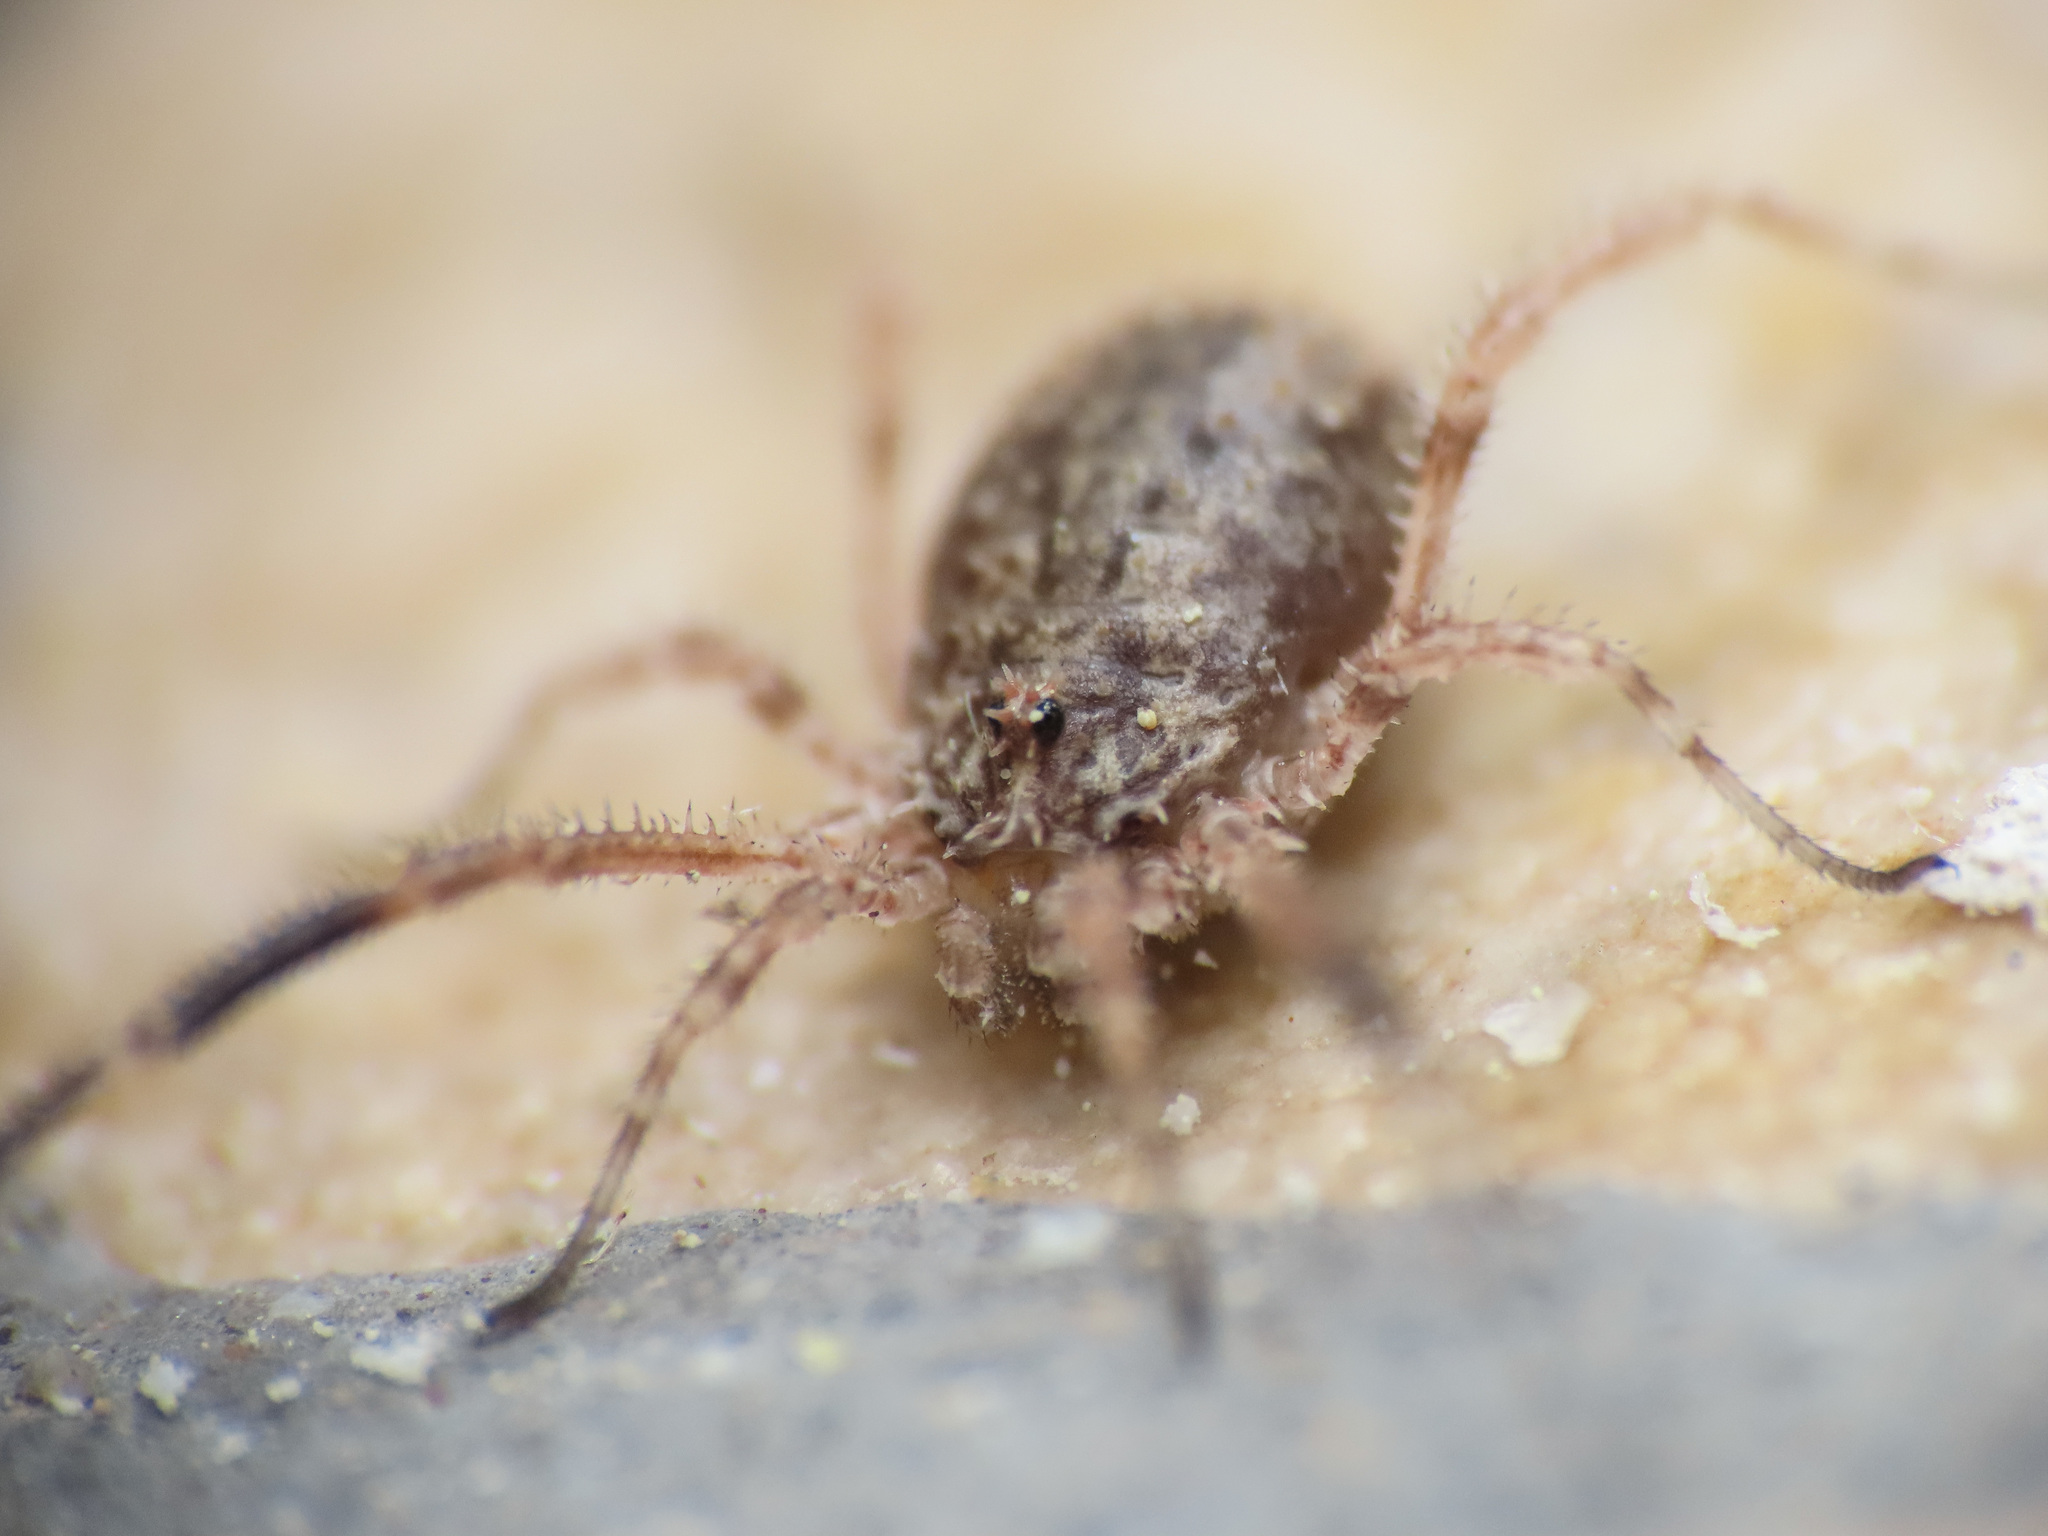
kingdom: Animalia
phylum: Arthropoda
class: Arachnida
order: Opiliones
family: Phalangiidae
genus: Lacinius
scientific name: Lacinius horridus
